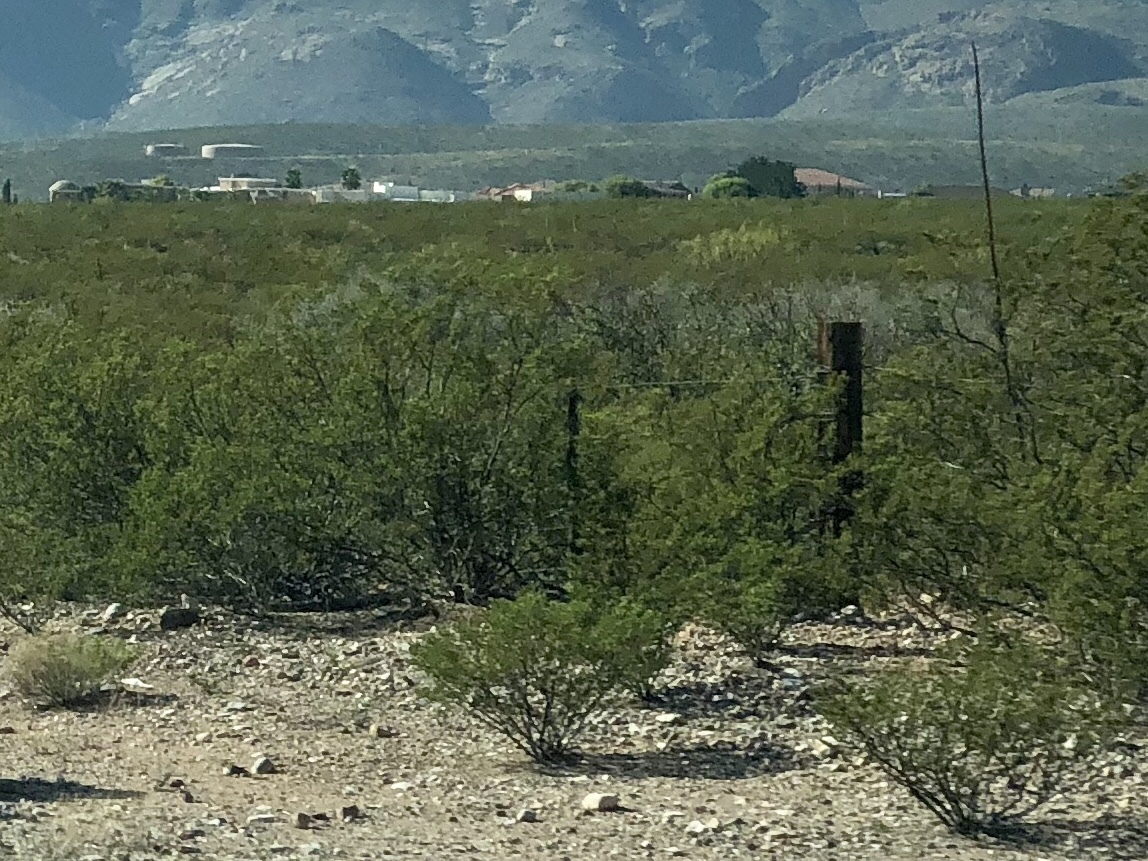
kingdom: Plantae
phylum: Tracheophyta
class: Magnoliopsida
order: Zygophyllales
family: Zygophyllaceae
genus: Larrea
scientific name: Larrea tridentata
